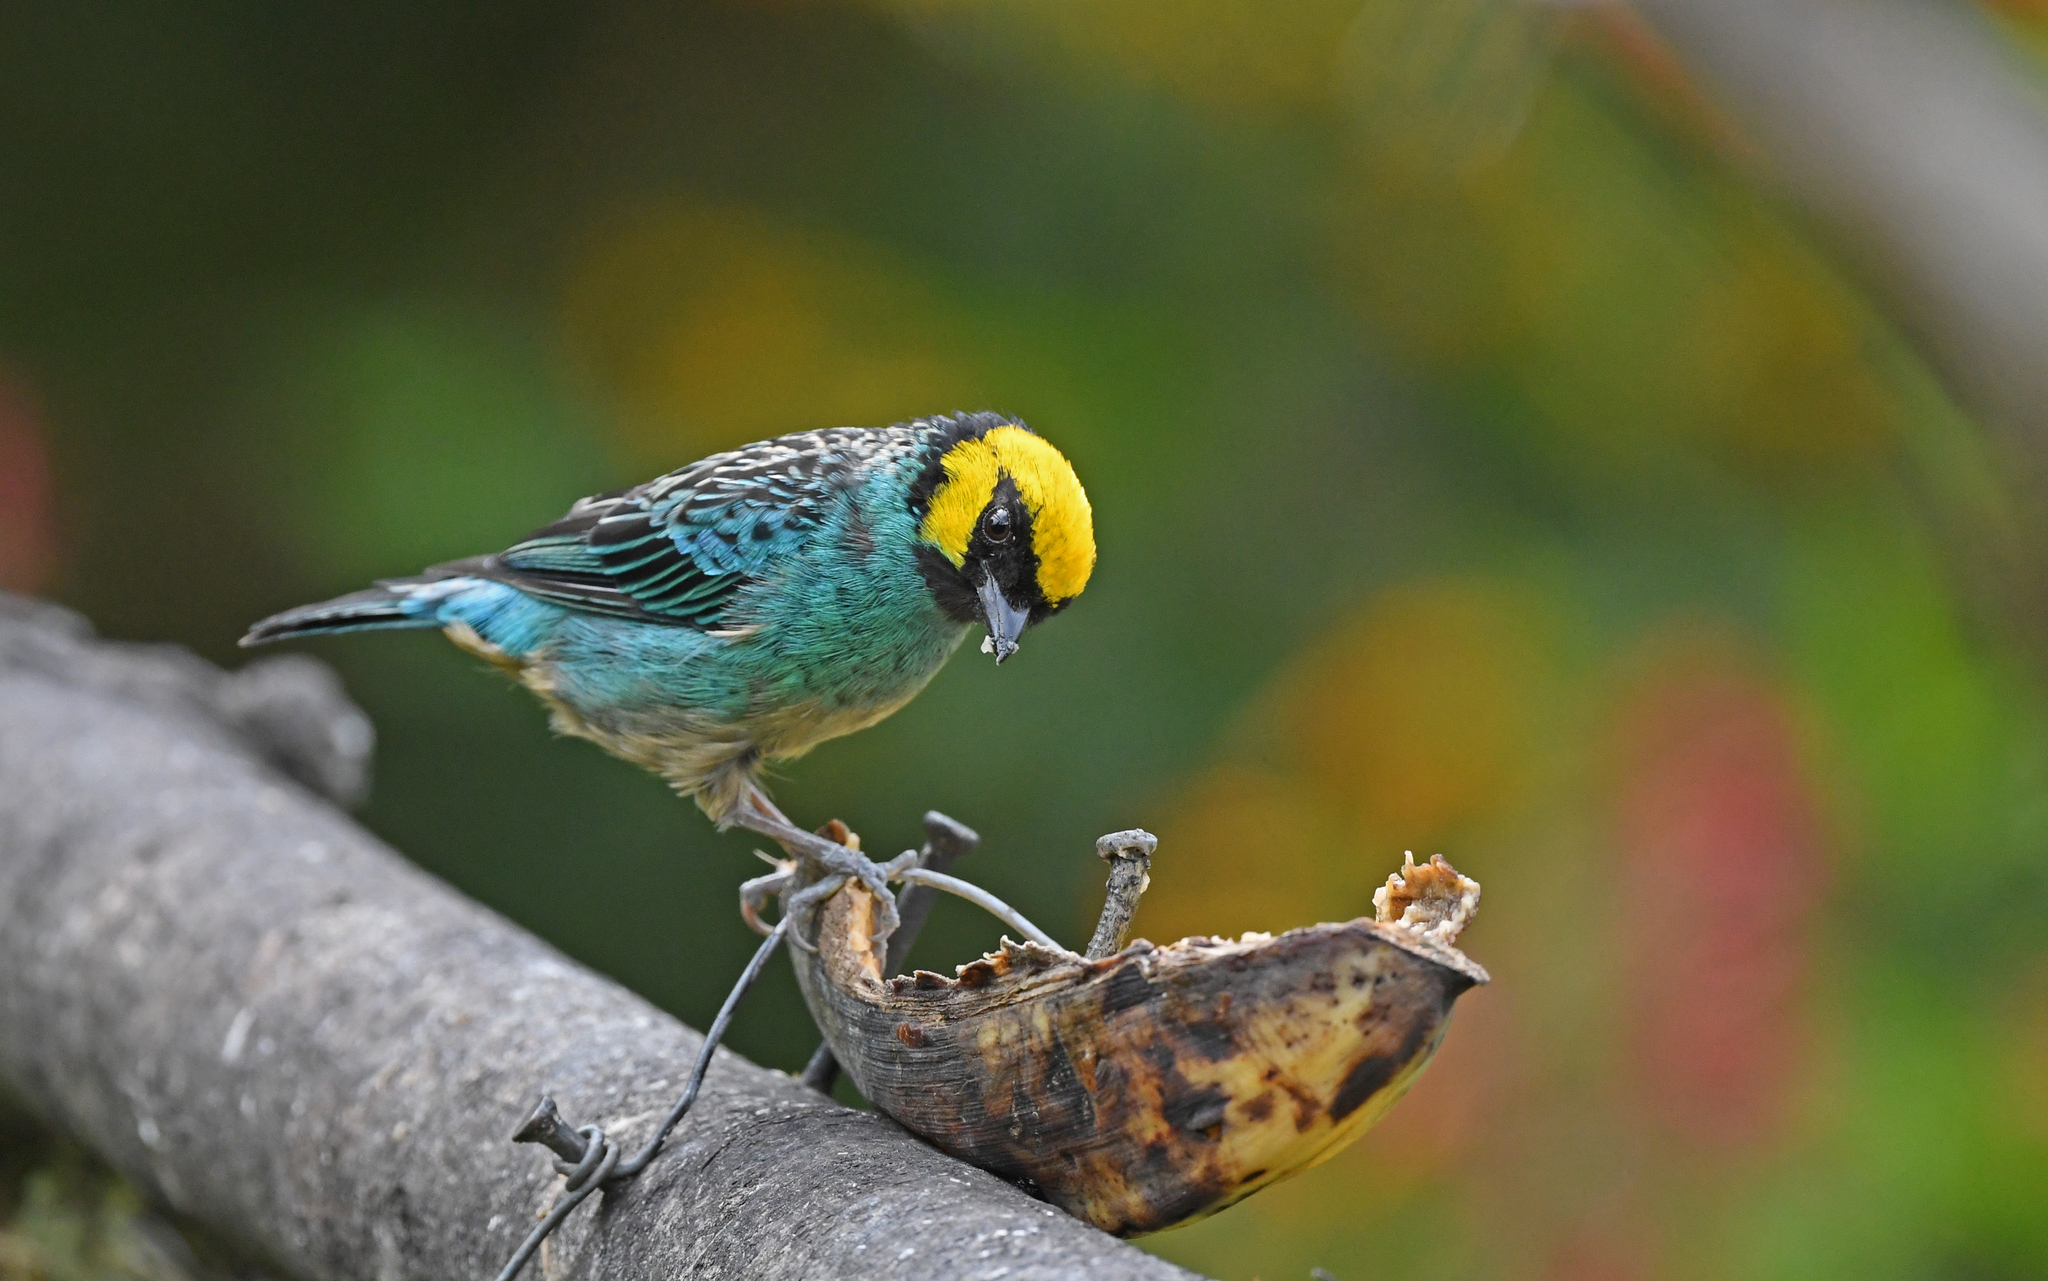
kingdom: Animalia
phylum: Chordata
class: Aves
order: Passeriformes
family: Thraupidae
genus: Tangara
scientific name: Tangara xanthocephala
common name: Saffron-crowned tanager
